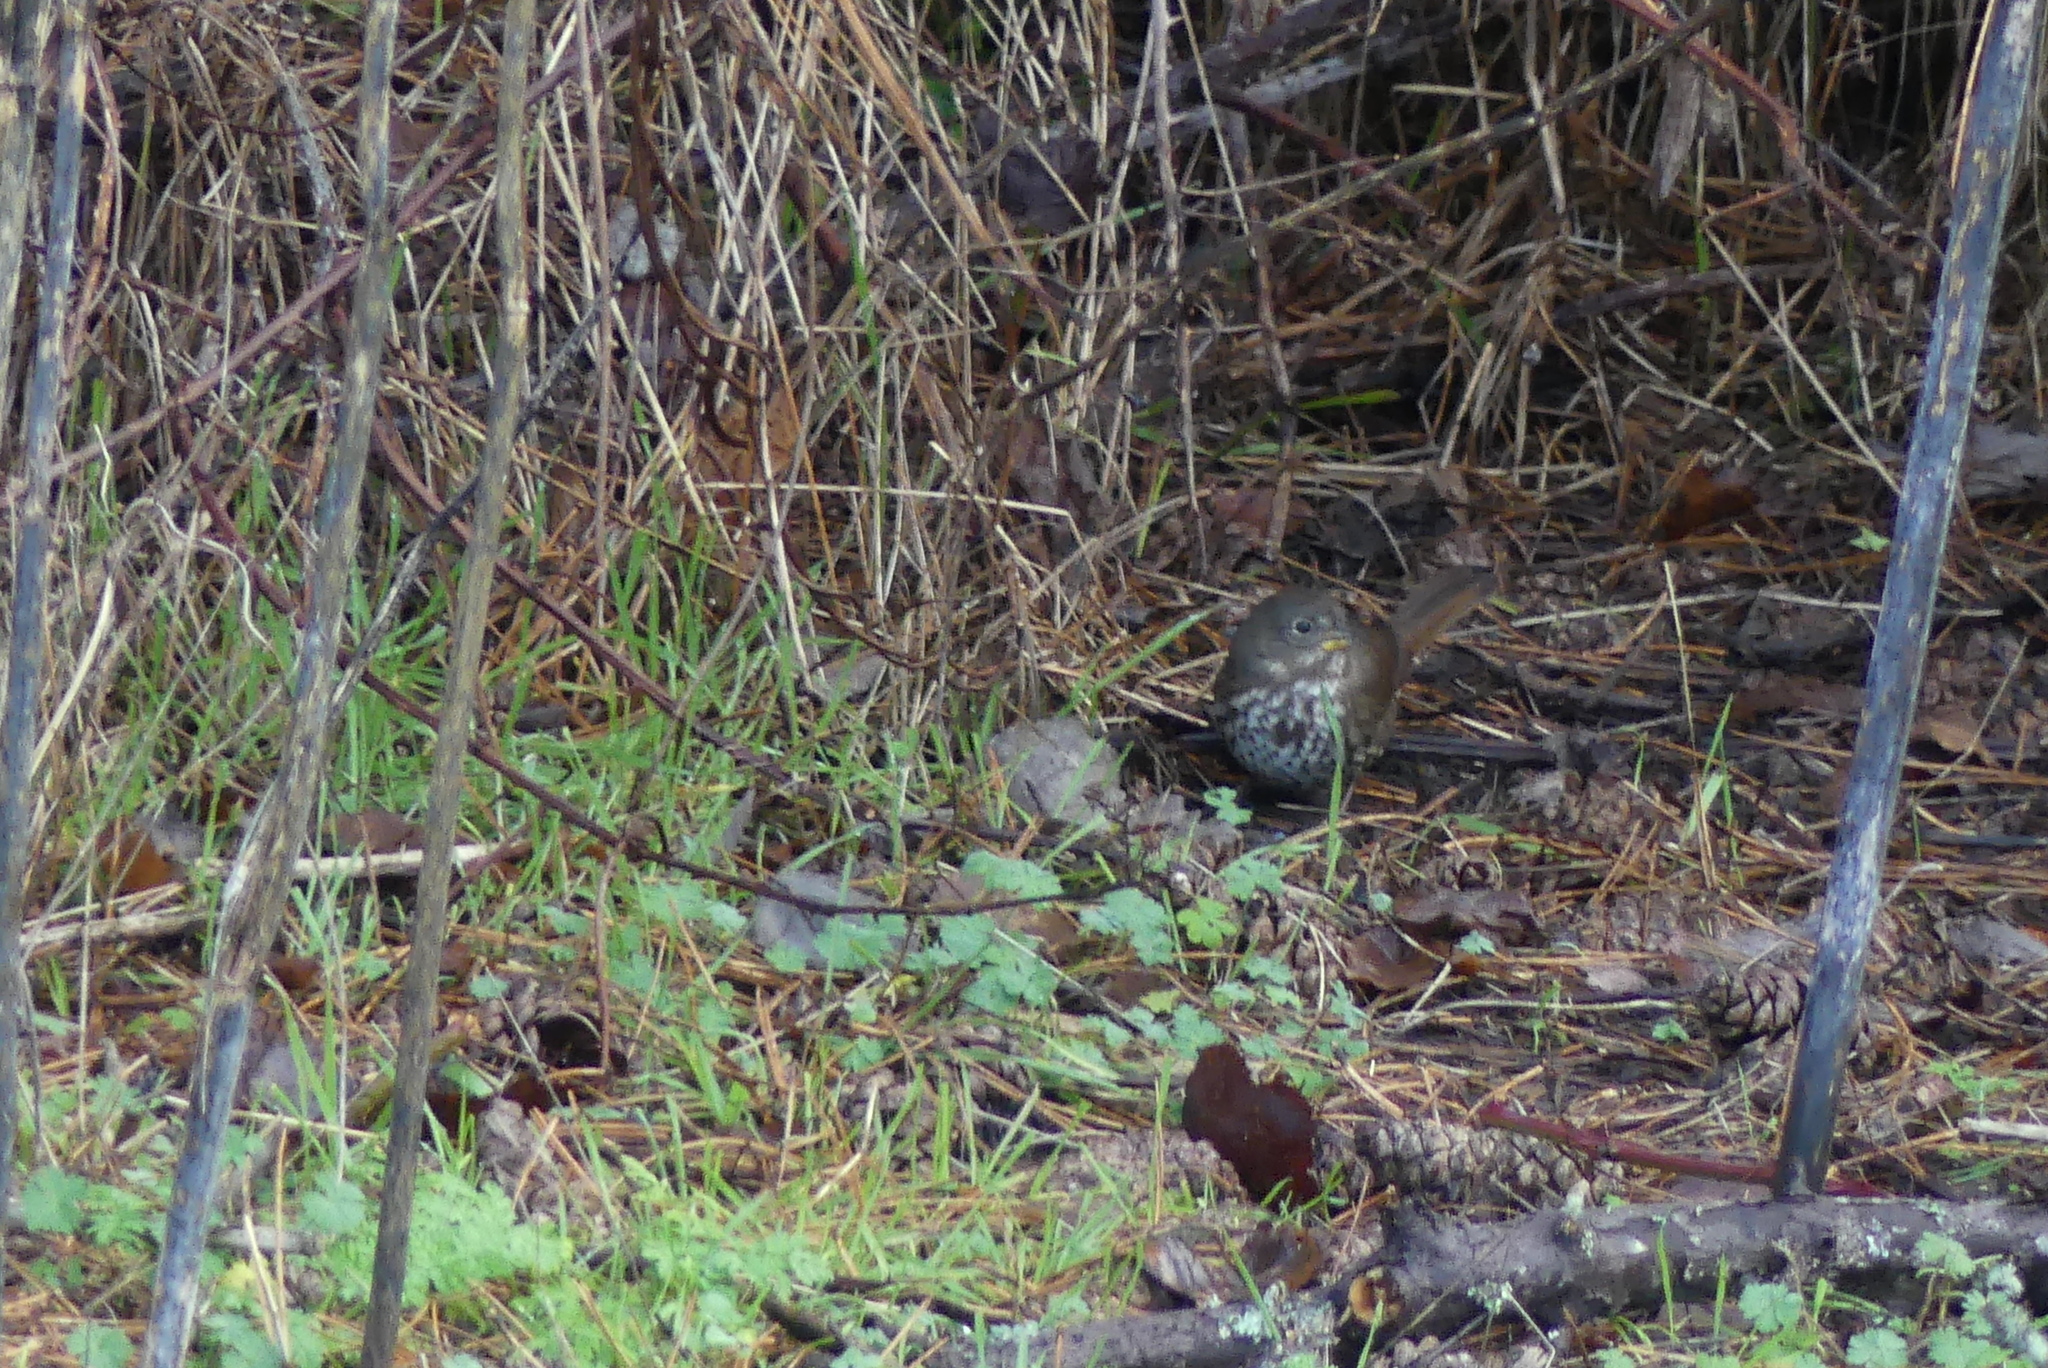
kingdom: Animalia
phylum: Chordata
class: Aves
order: Passeriformes
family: Passerellidae
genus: Passerella
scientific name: Passerella iliaca
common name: Fox sparrow
